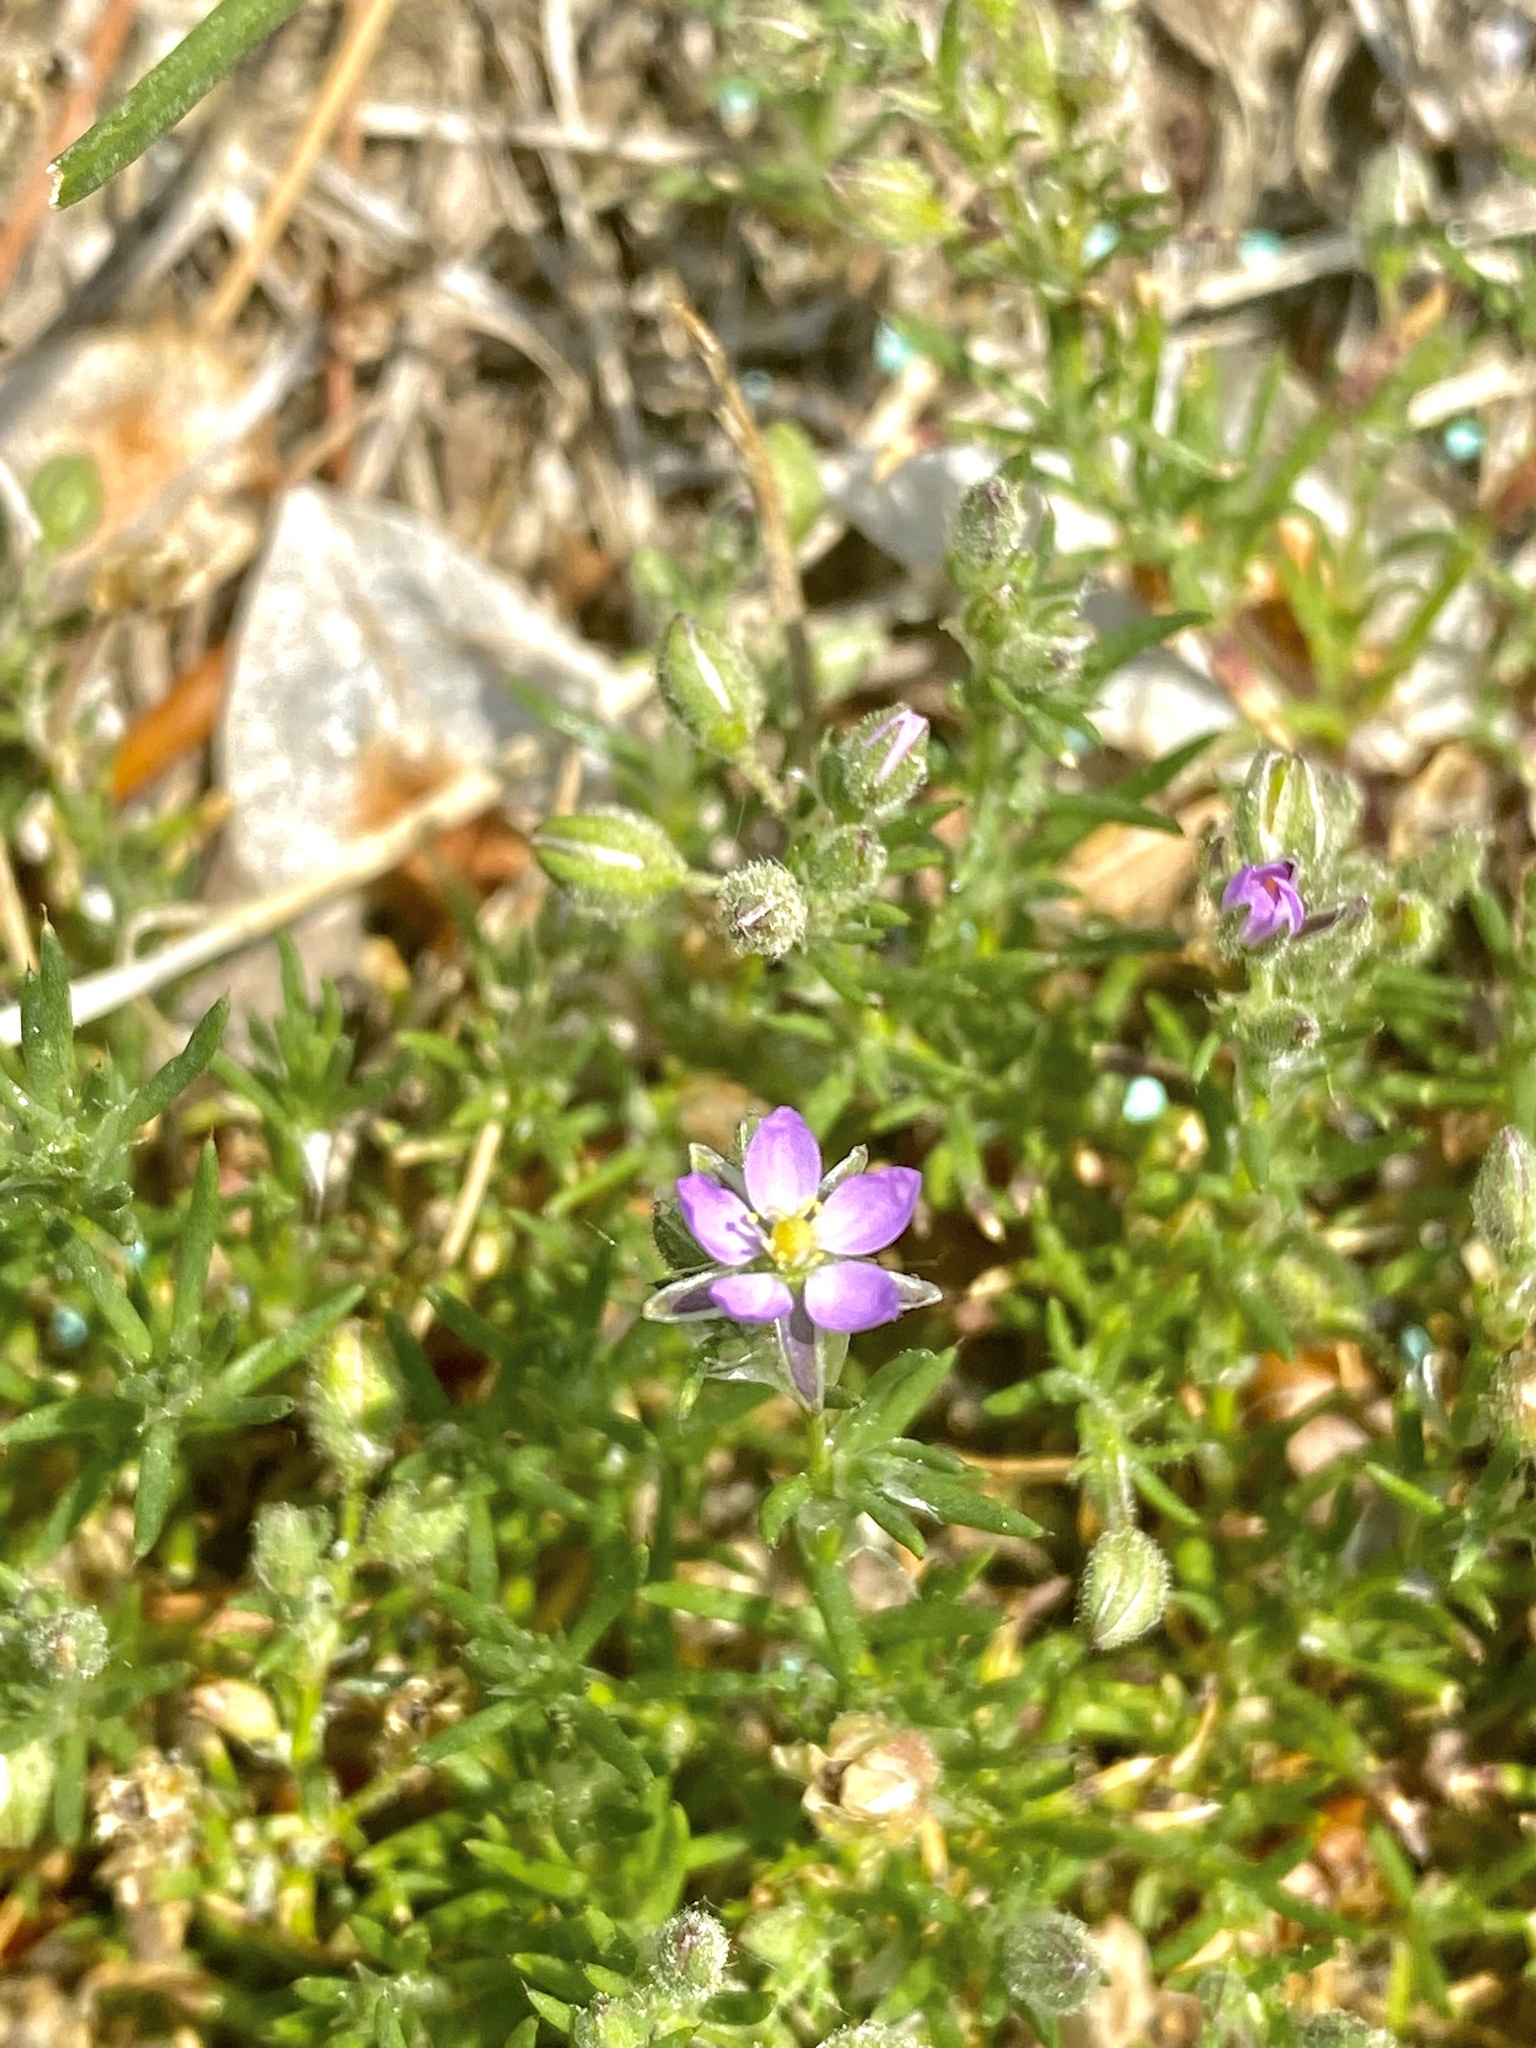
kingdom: Plantae
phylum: Tracheophyta
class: Magnoliopsida
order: Caryophyllales
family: Caryophyllaceae
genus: Spergularia
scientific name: Spergularia rubra
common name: Red sand-spurrey
